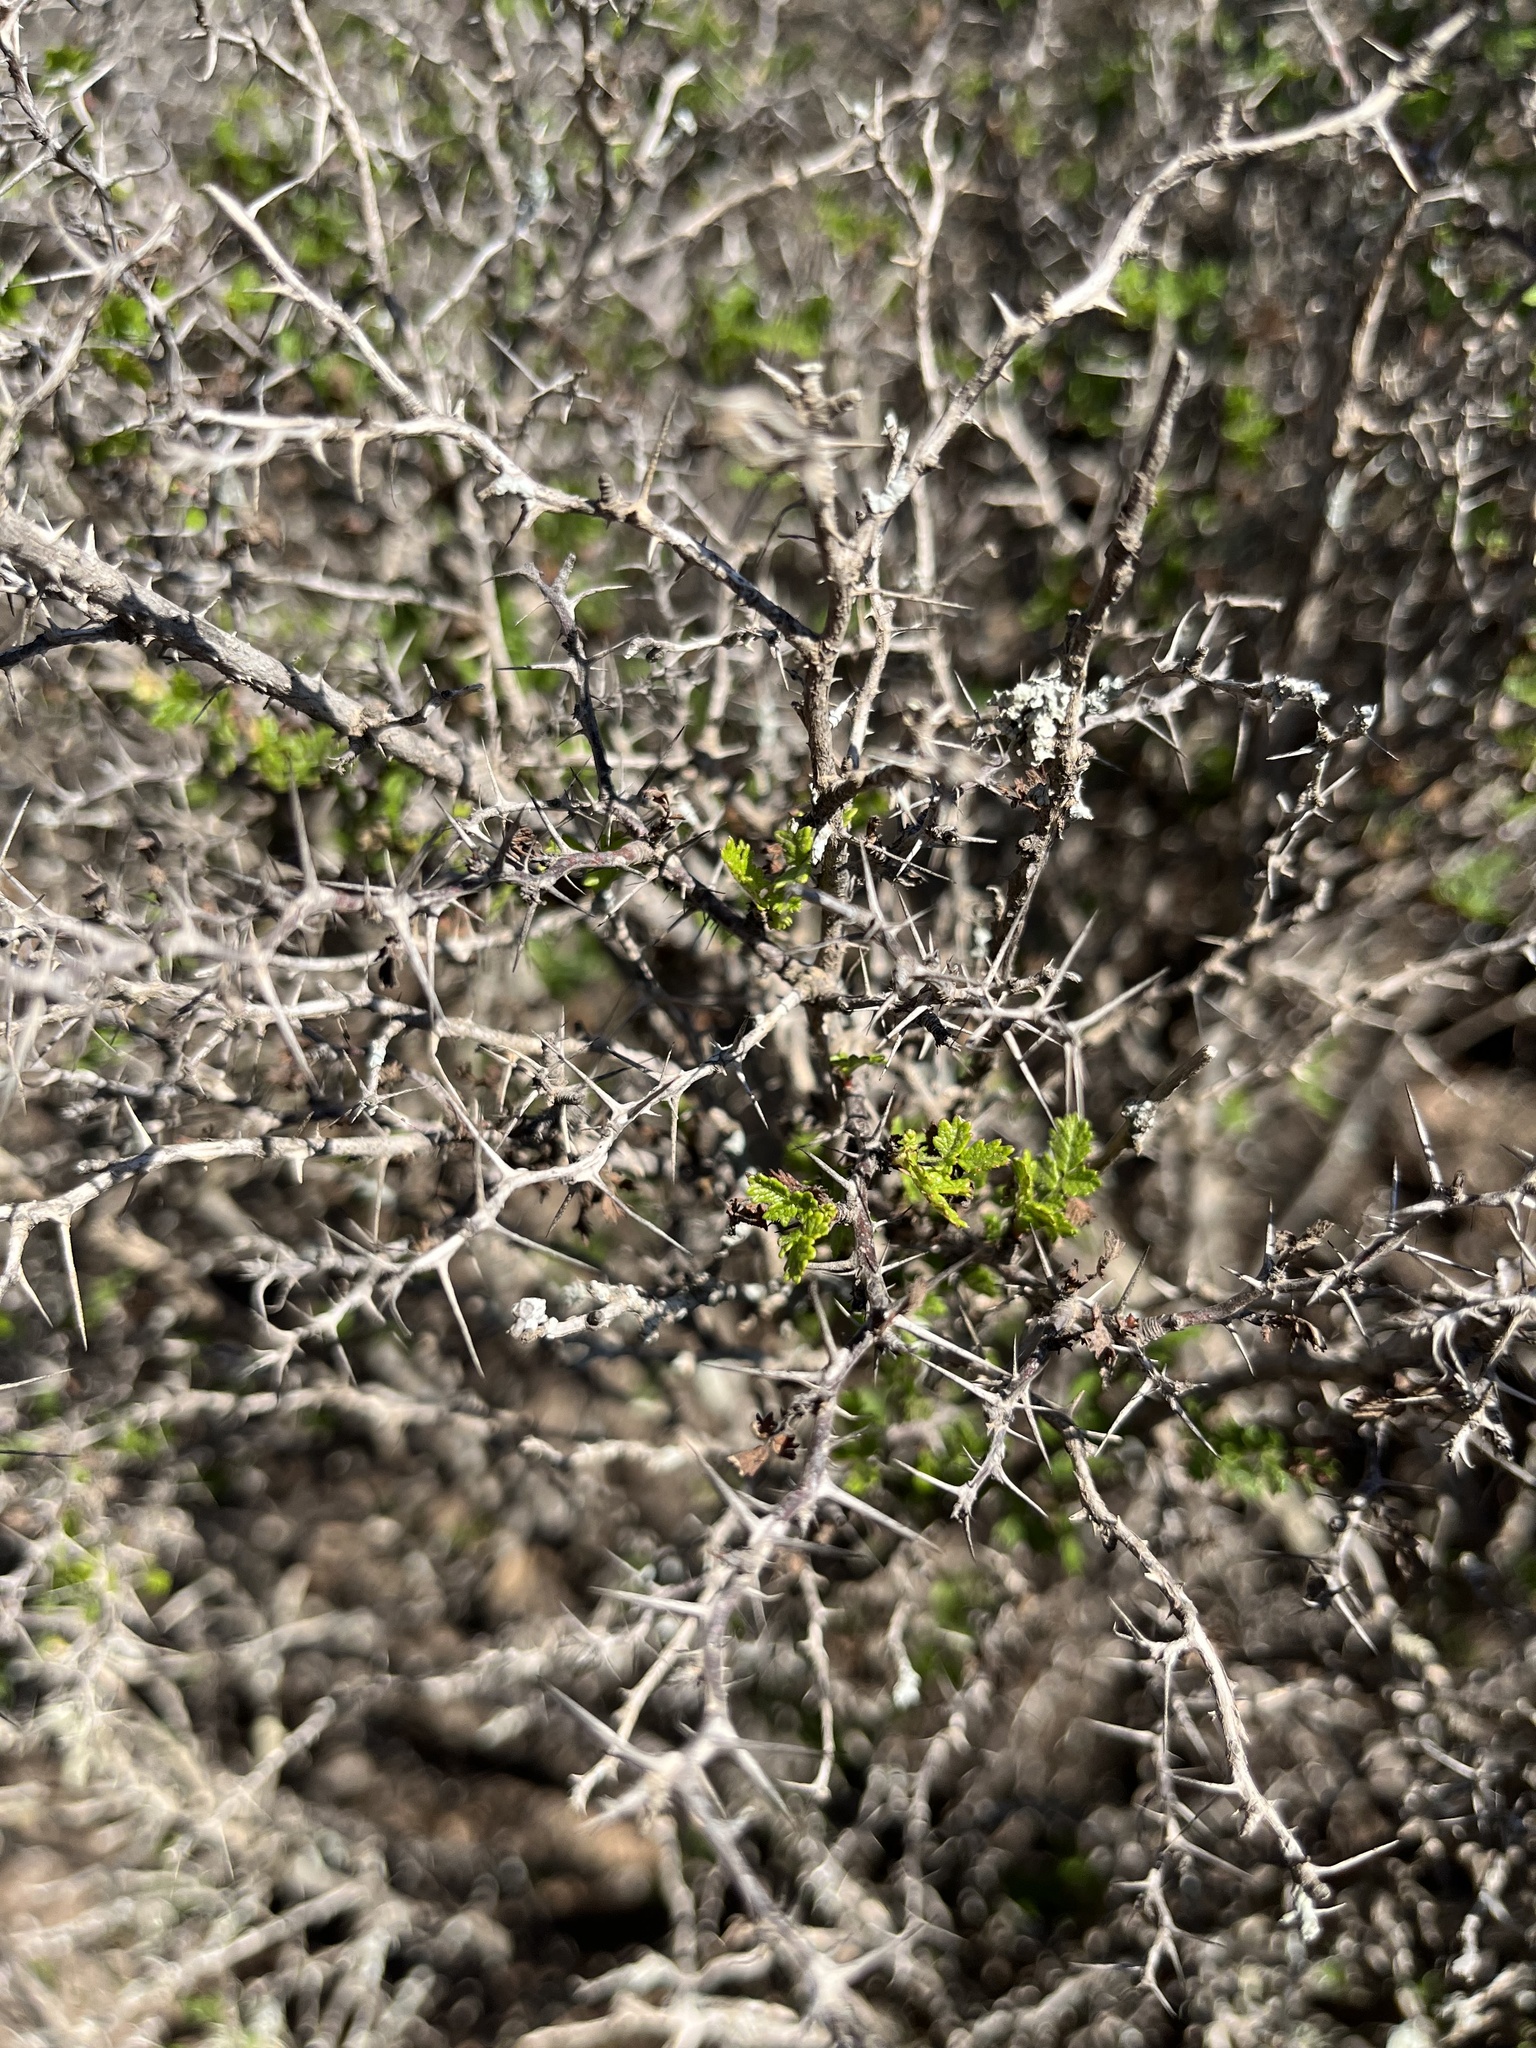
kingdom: Plantae
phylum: Tracheophyta
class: Magnoliopsida
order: Rosales
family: Rosaceae
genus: Rosa
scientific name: Rosa minutifolia
